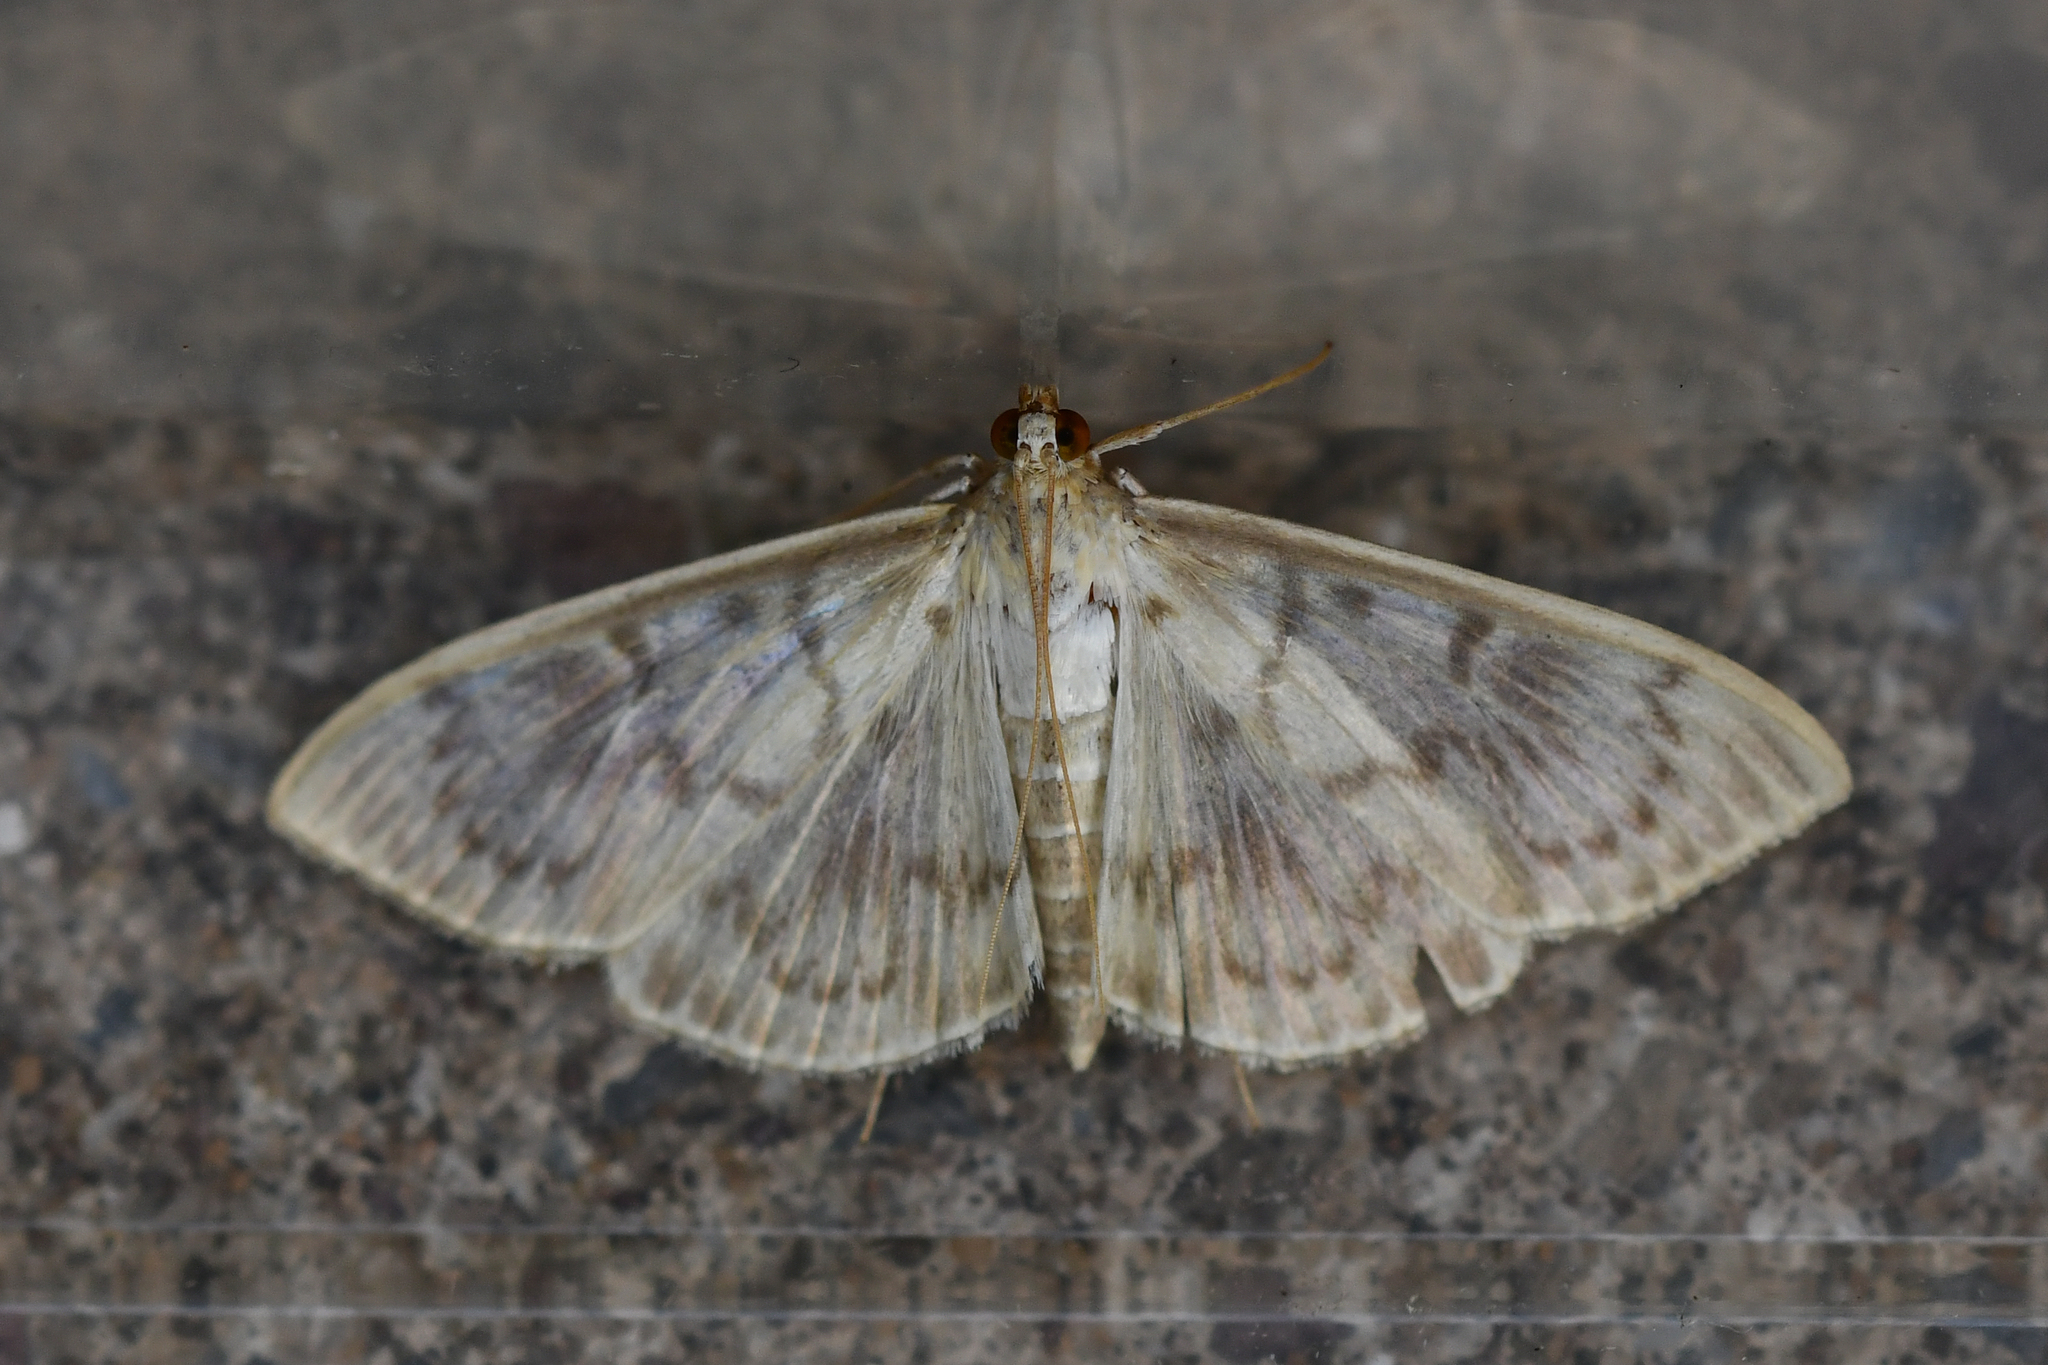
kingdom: Animalia
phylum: Arthropoda
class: Insecta
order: Lepidoptera
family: Crambidae
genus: Patania
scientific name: Patania ruralis
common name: Mother of pearl
